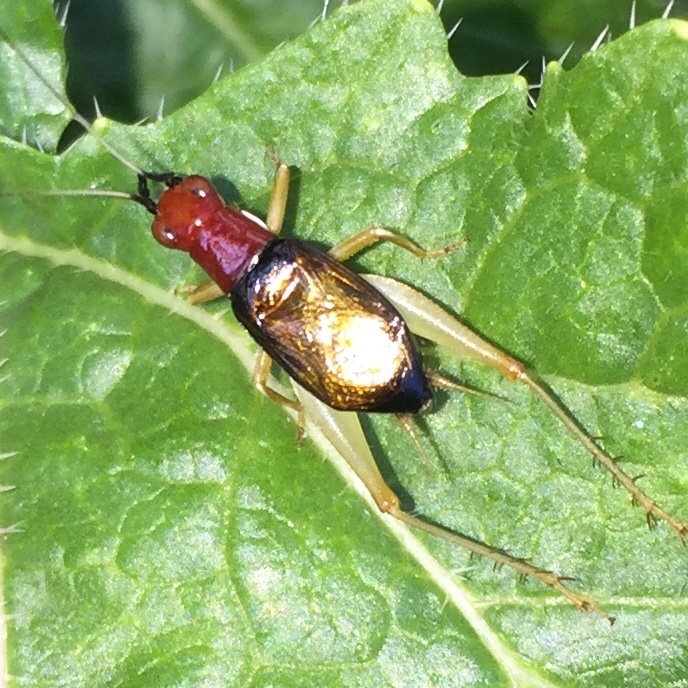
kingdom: Animalia
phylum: Arthropoda
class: Insecta
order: Orthoptera
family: Trigonidiidae
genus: Phyllopalpus
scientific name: Phyllopalpus pulchellus
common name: Handsome trig
